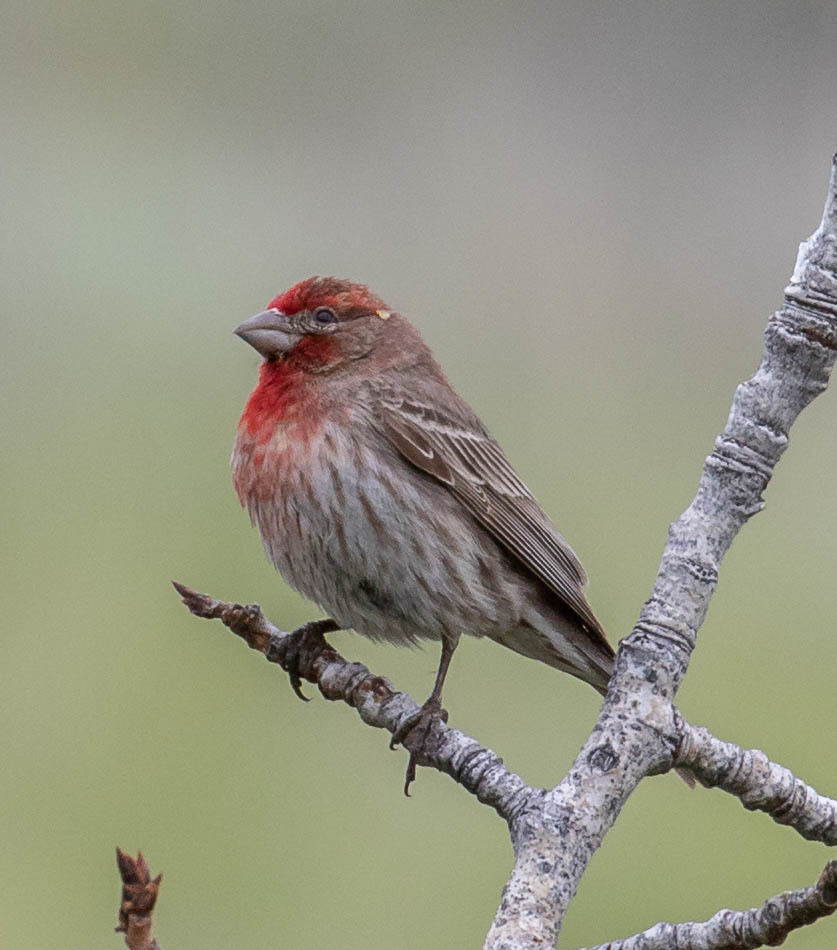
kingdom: Animalia
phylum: Chordata
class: Aves
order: Passeriformes
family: Fringillidae
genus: Haemorhous
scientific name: Haemorhous mexicanus
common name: House finch
